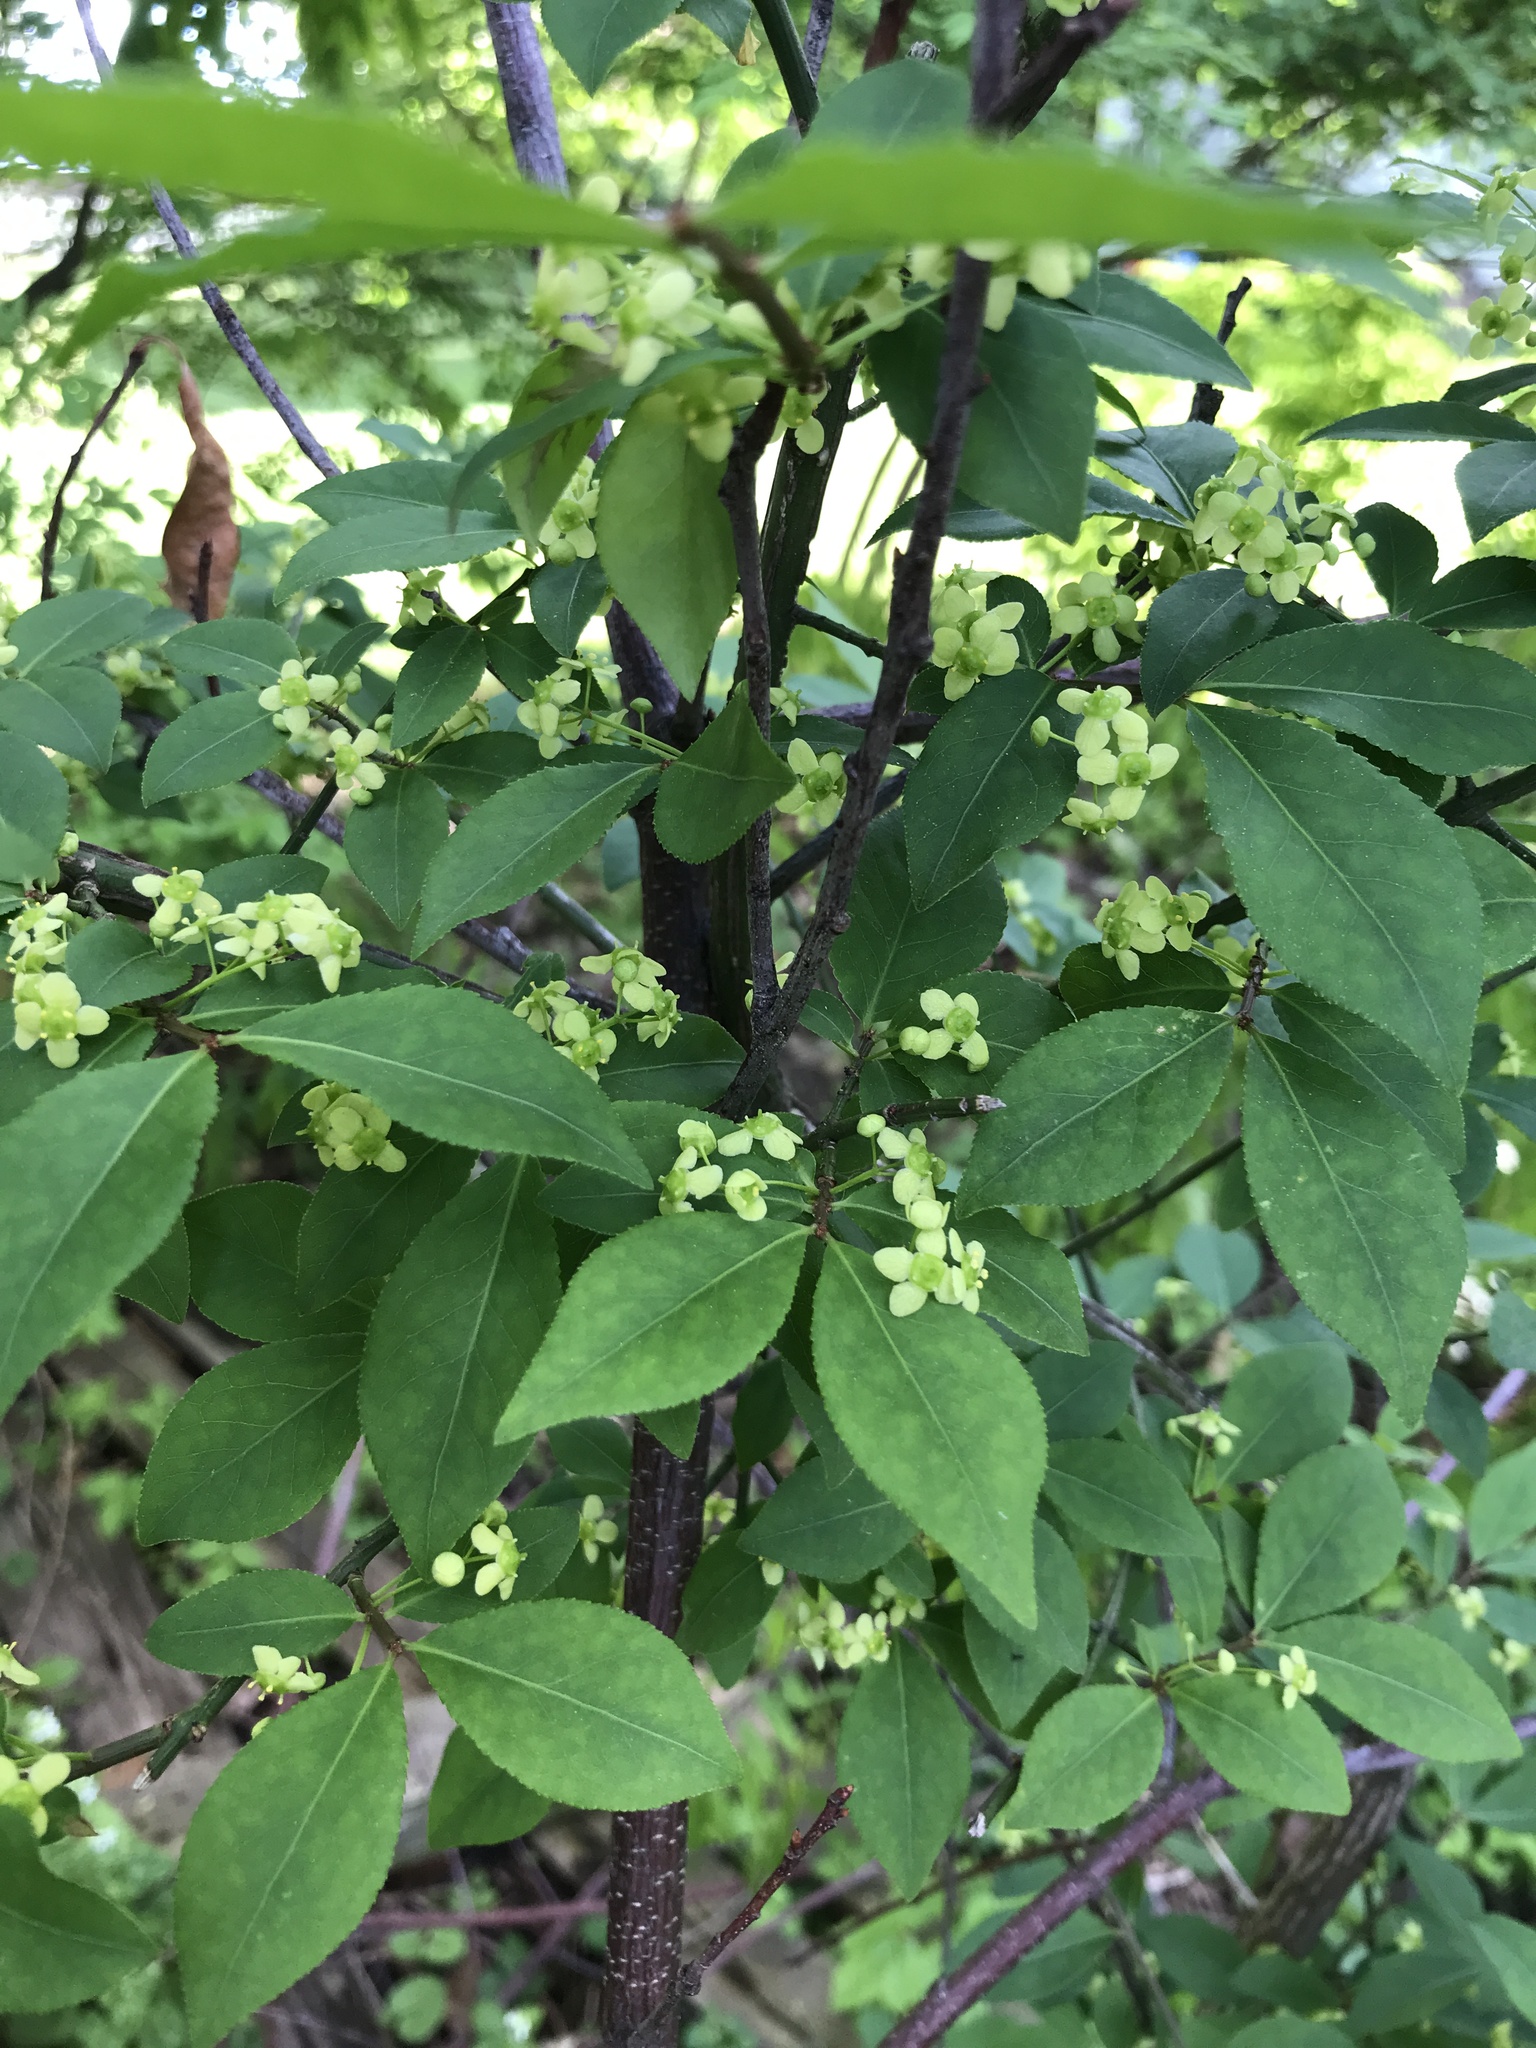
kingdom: Plantae
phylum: Tracheophyta
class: Magnoliopsida
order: Celastrales
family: Celastraceae
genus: Euonymus
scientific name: Euonymus alatus
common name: Winged euonymus
